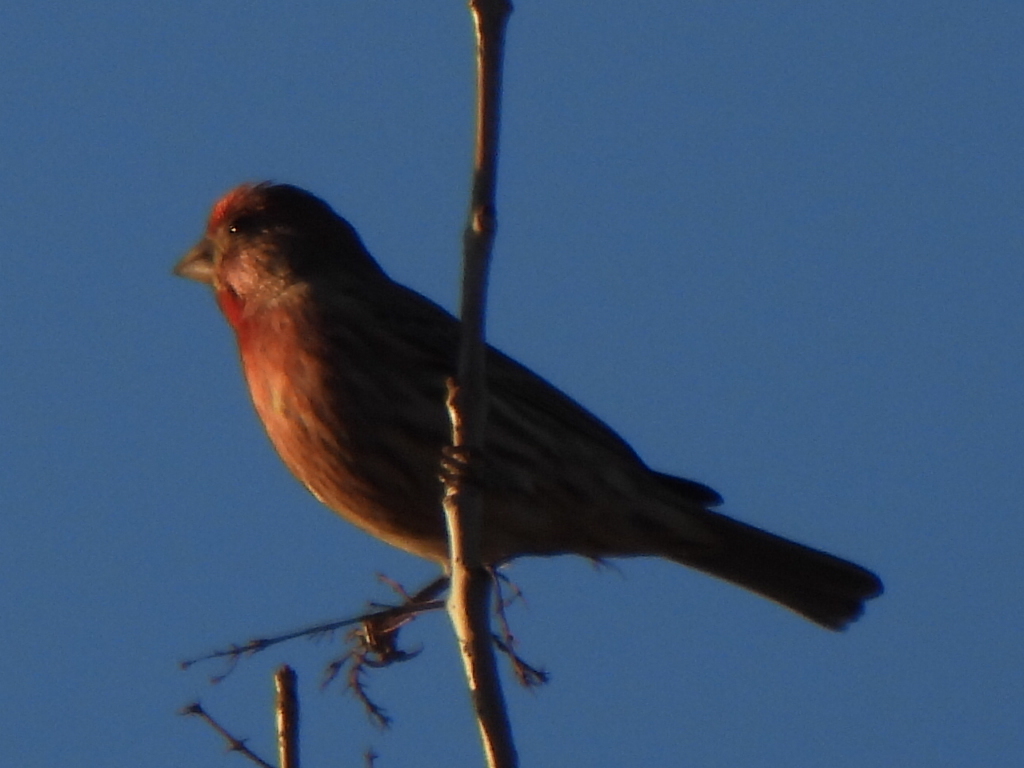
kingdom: Animalia
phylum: Chordata
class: Aves
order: Passeriformes
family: Fringillidae
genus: Haemorhous
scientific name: Haemorhous mexicanus
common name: House finch
